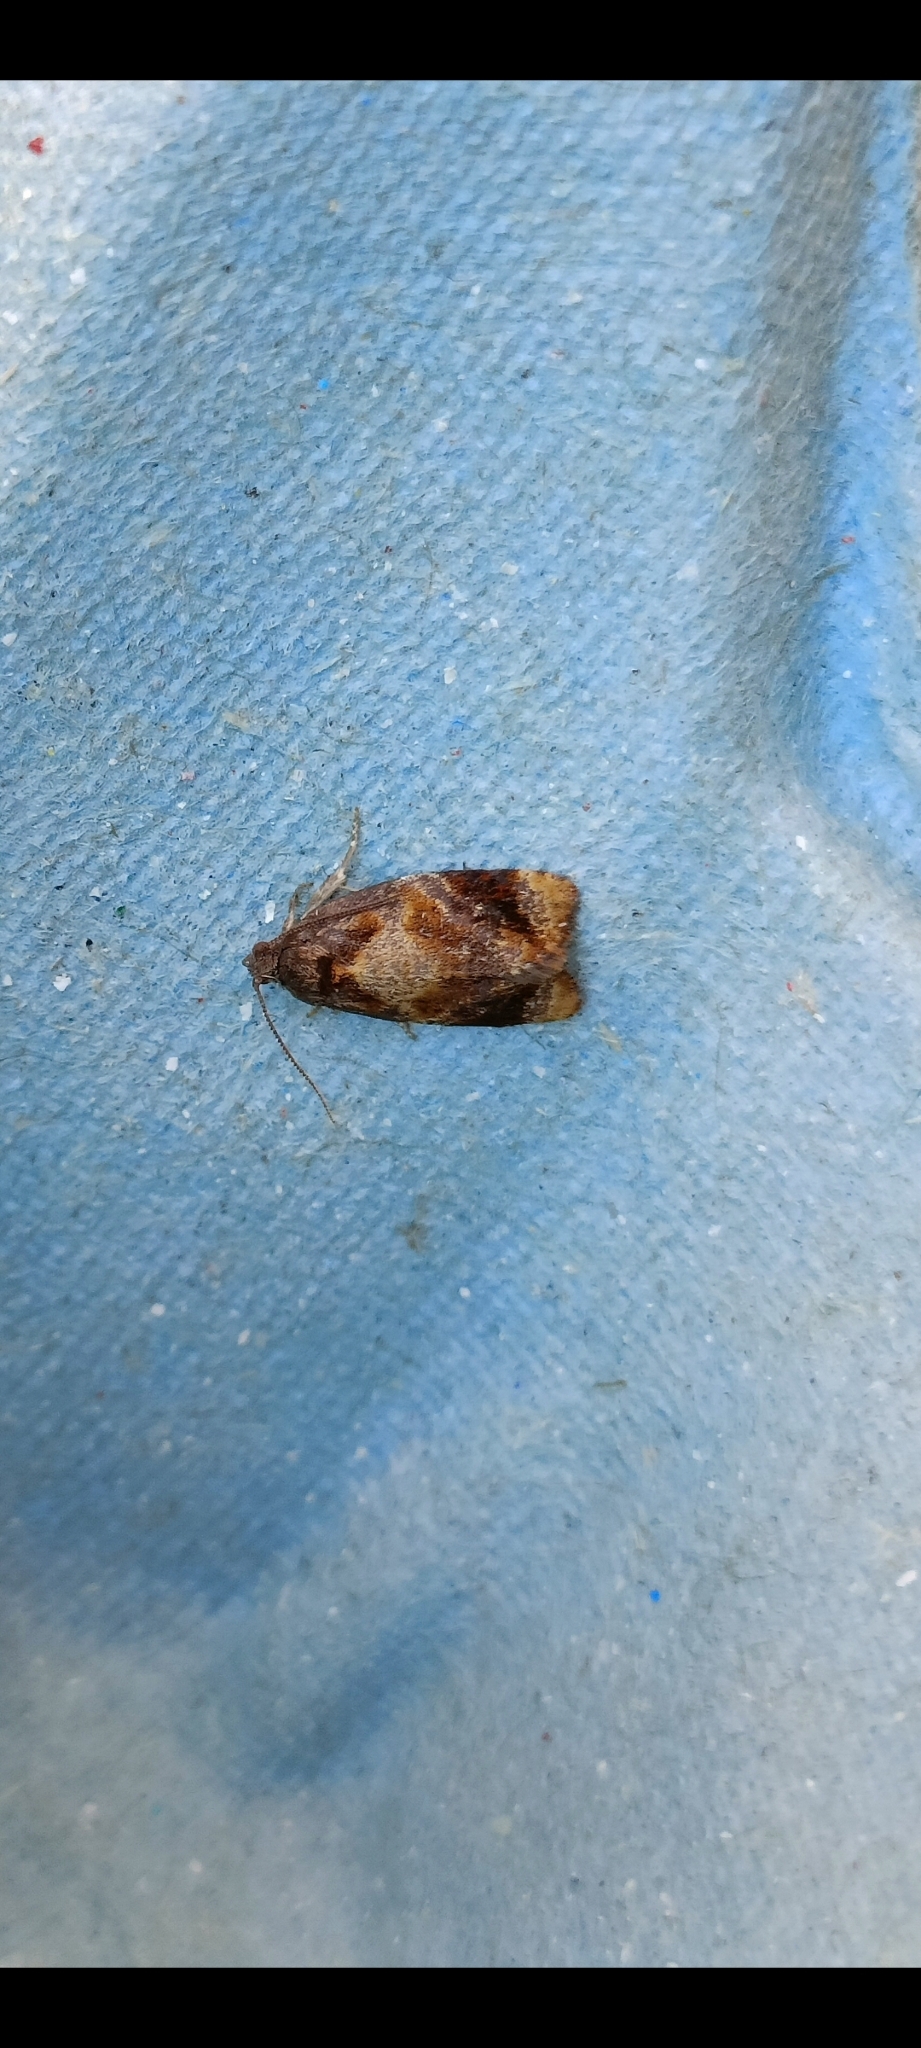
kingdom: Animalia
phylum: Arthropoda
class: Insecta
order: Lepidoptera
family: Tortricidae
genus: Ditula
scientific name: Ditula angustiorana
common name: Red-barred tortrix
